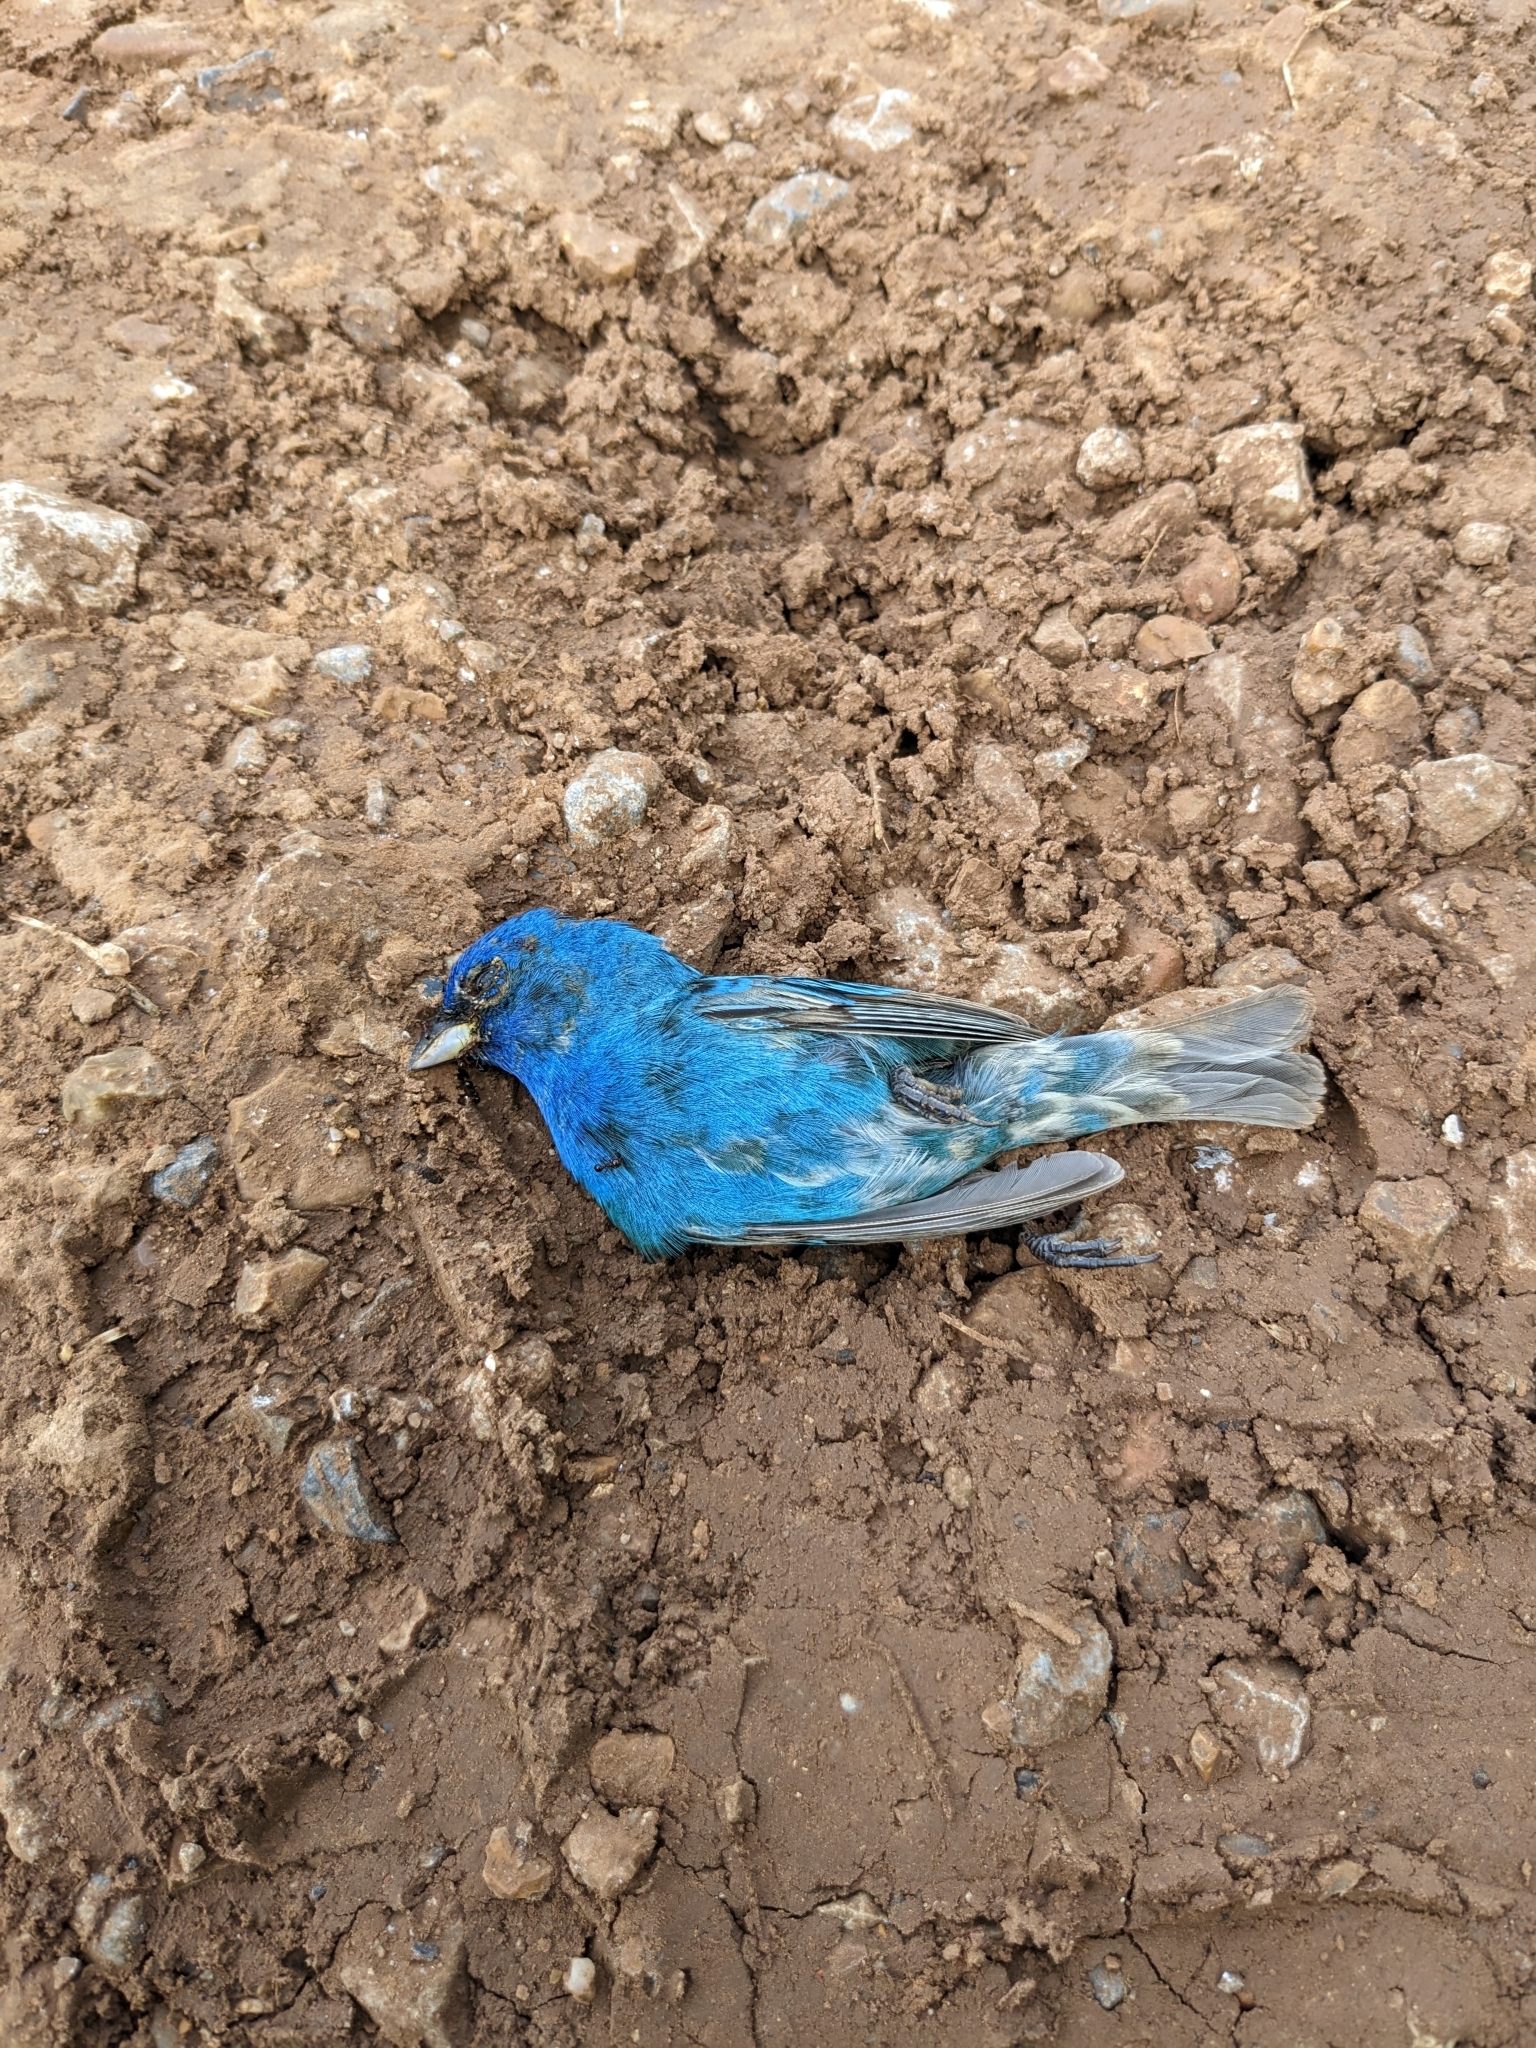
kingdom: Animalia
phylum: Chordata
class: Aves
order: Passeriformes
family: Cardinalidae
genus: Passerina
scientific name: Passerina cyanea
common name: Indigo bunting
